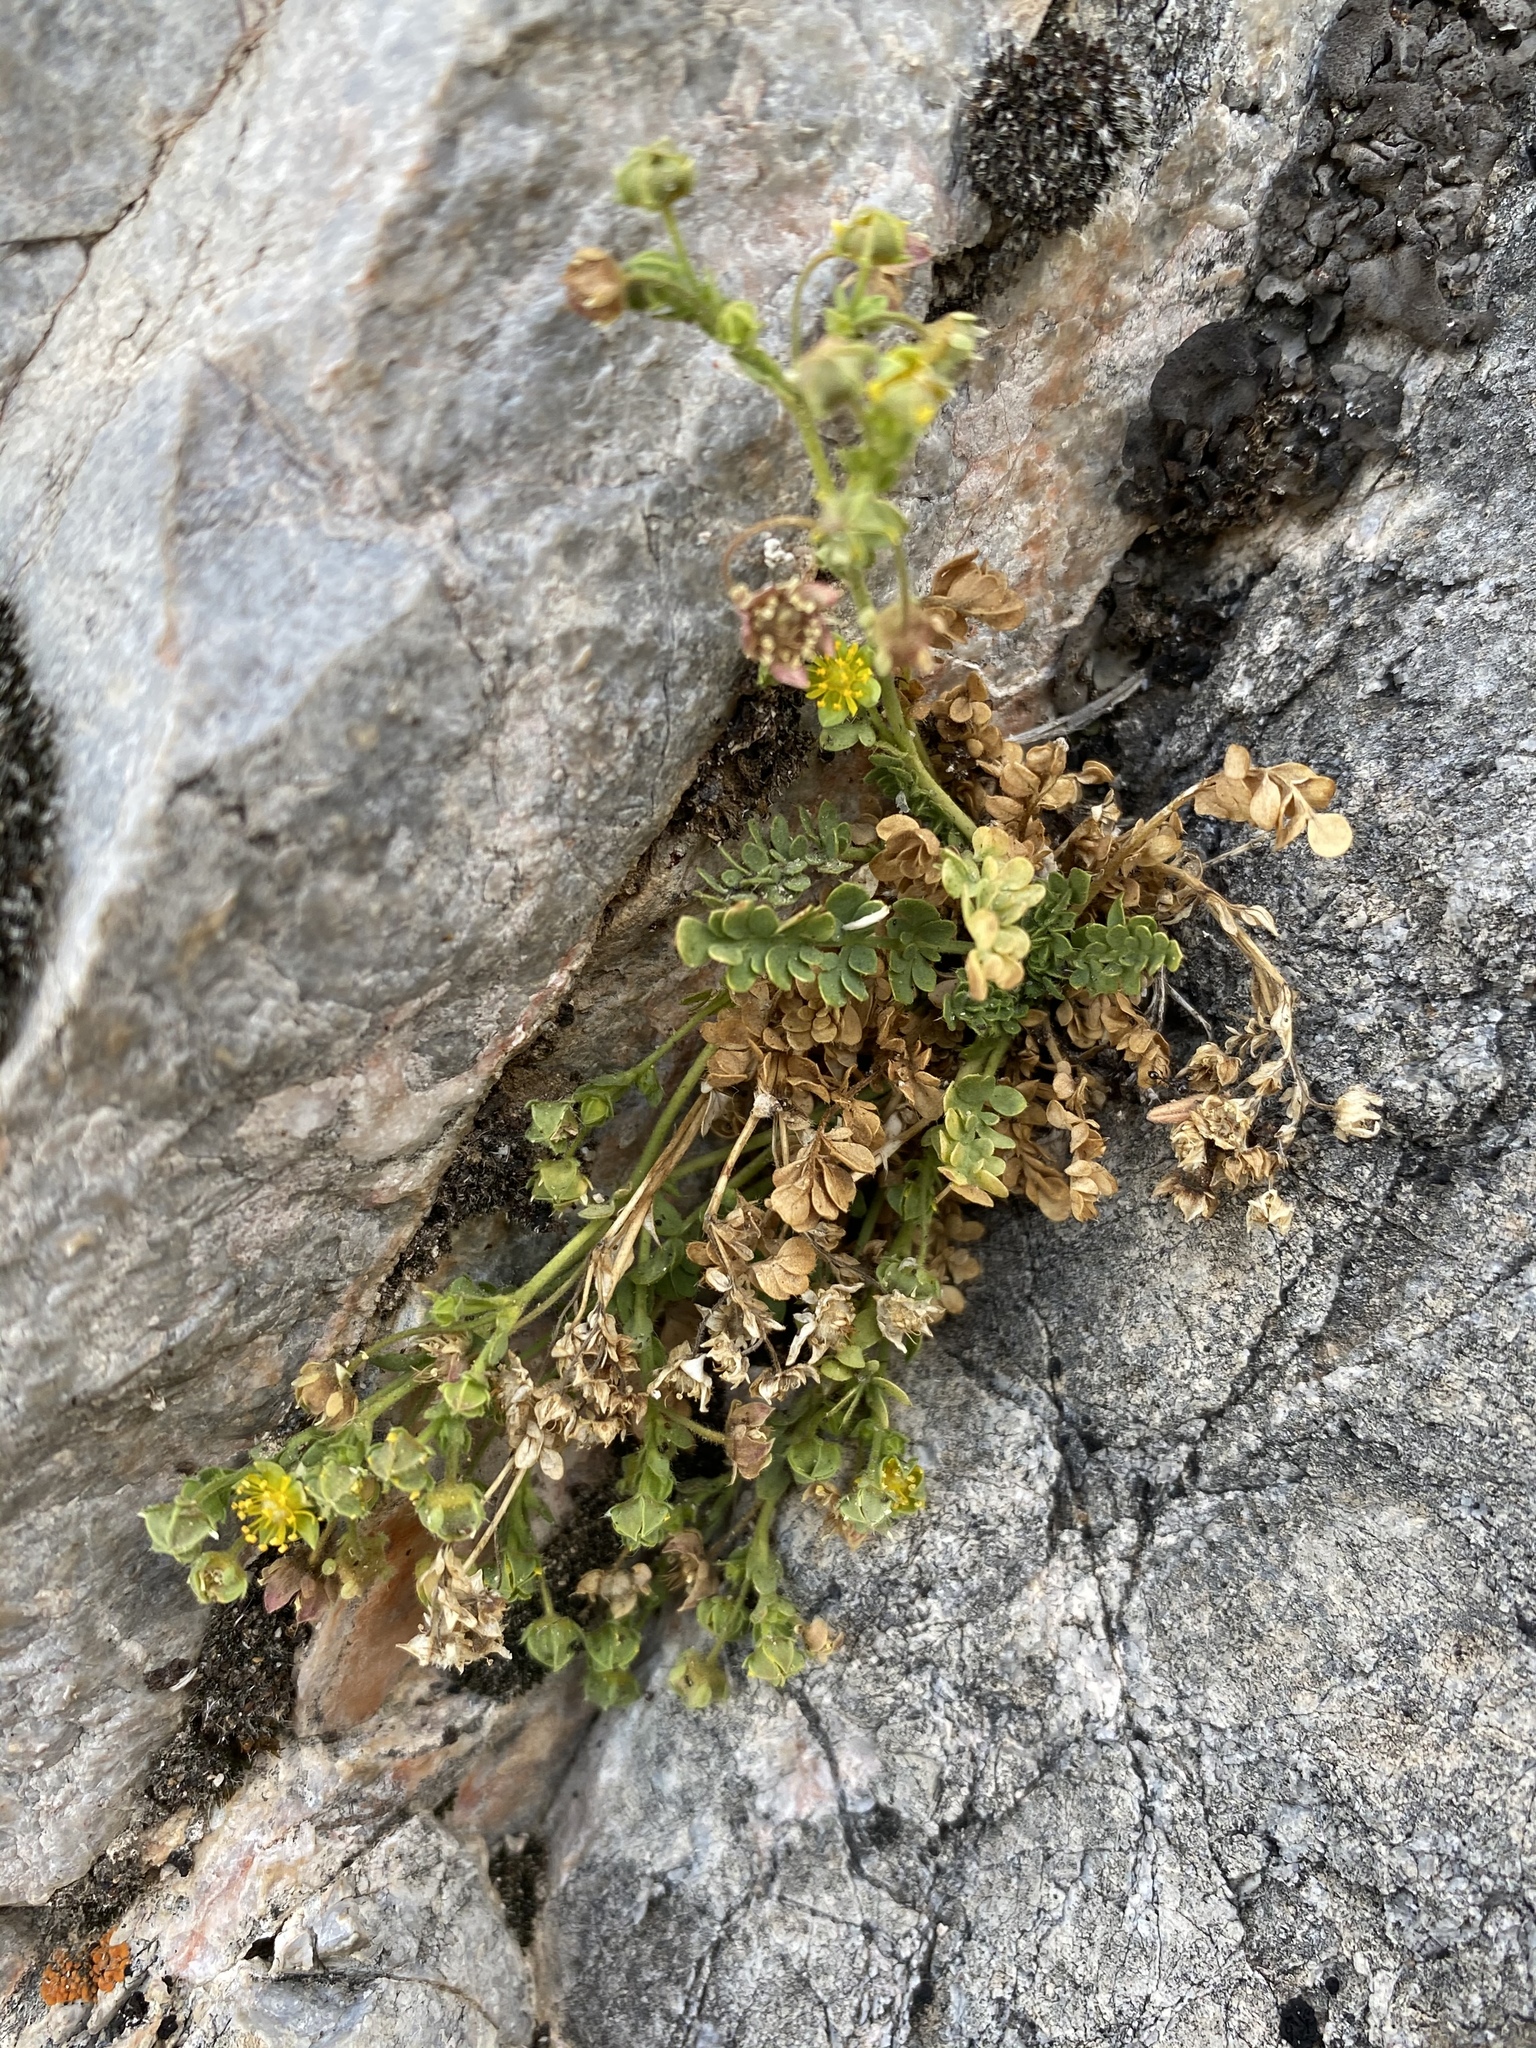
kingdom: Plantae
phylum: Tracheophyta
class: Magnoliopsida
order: Rosales
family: Rosaceae
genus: Potentilla
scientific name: Potentilla jaegeri
